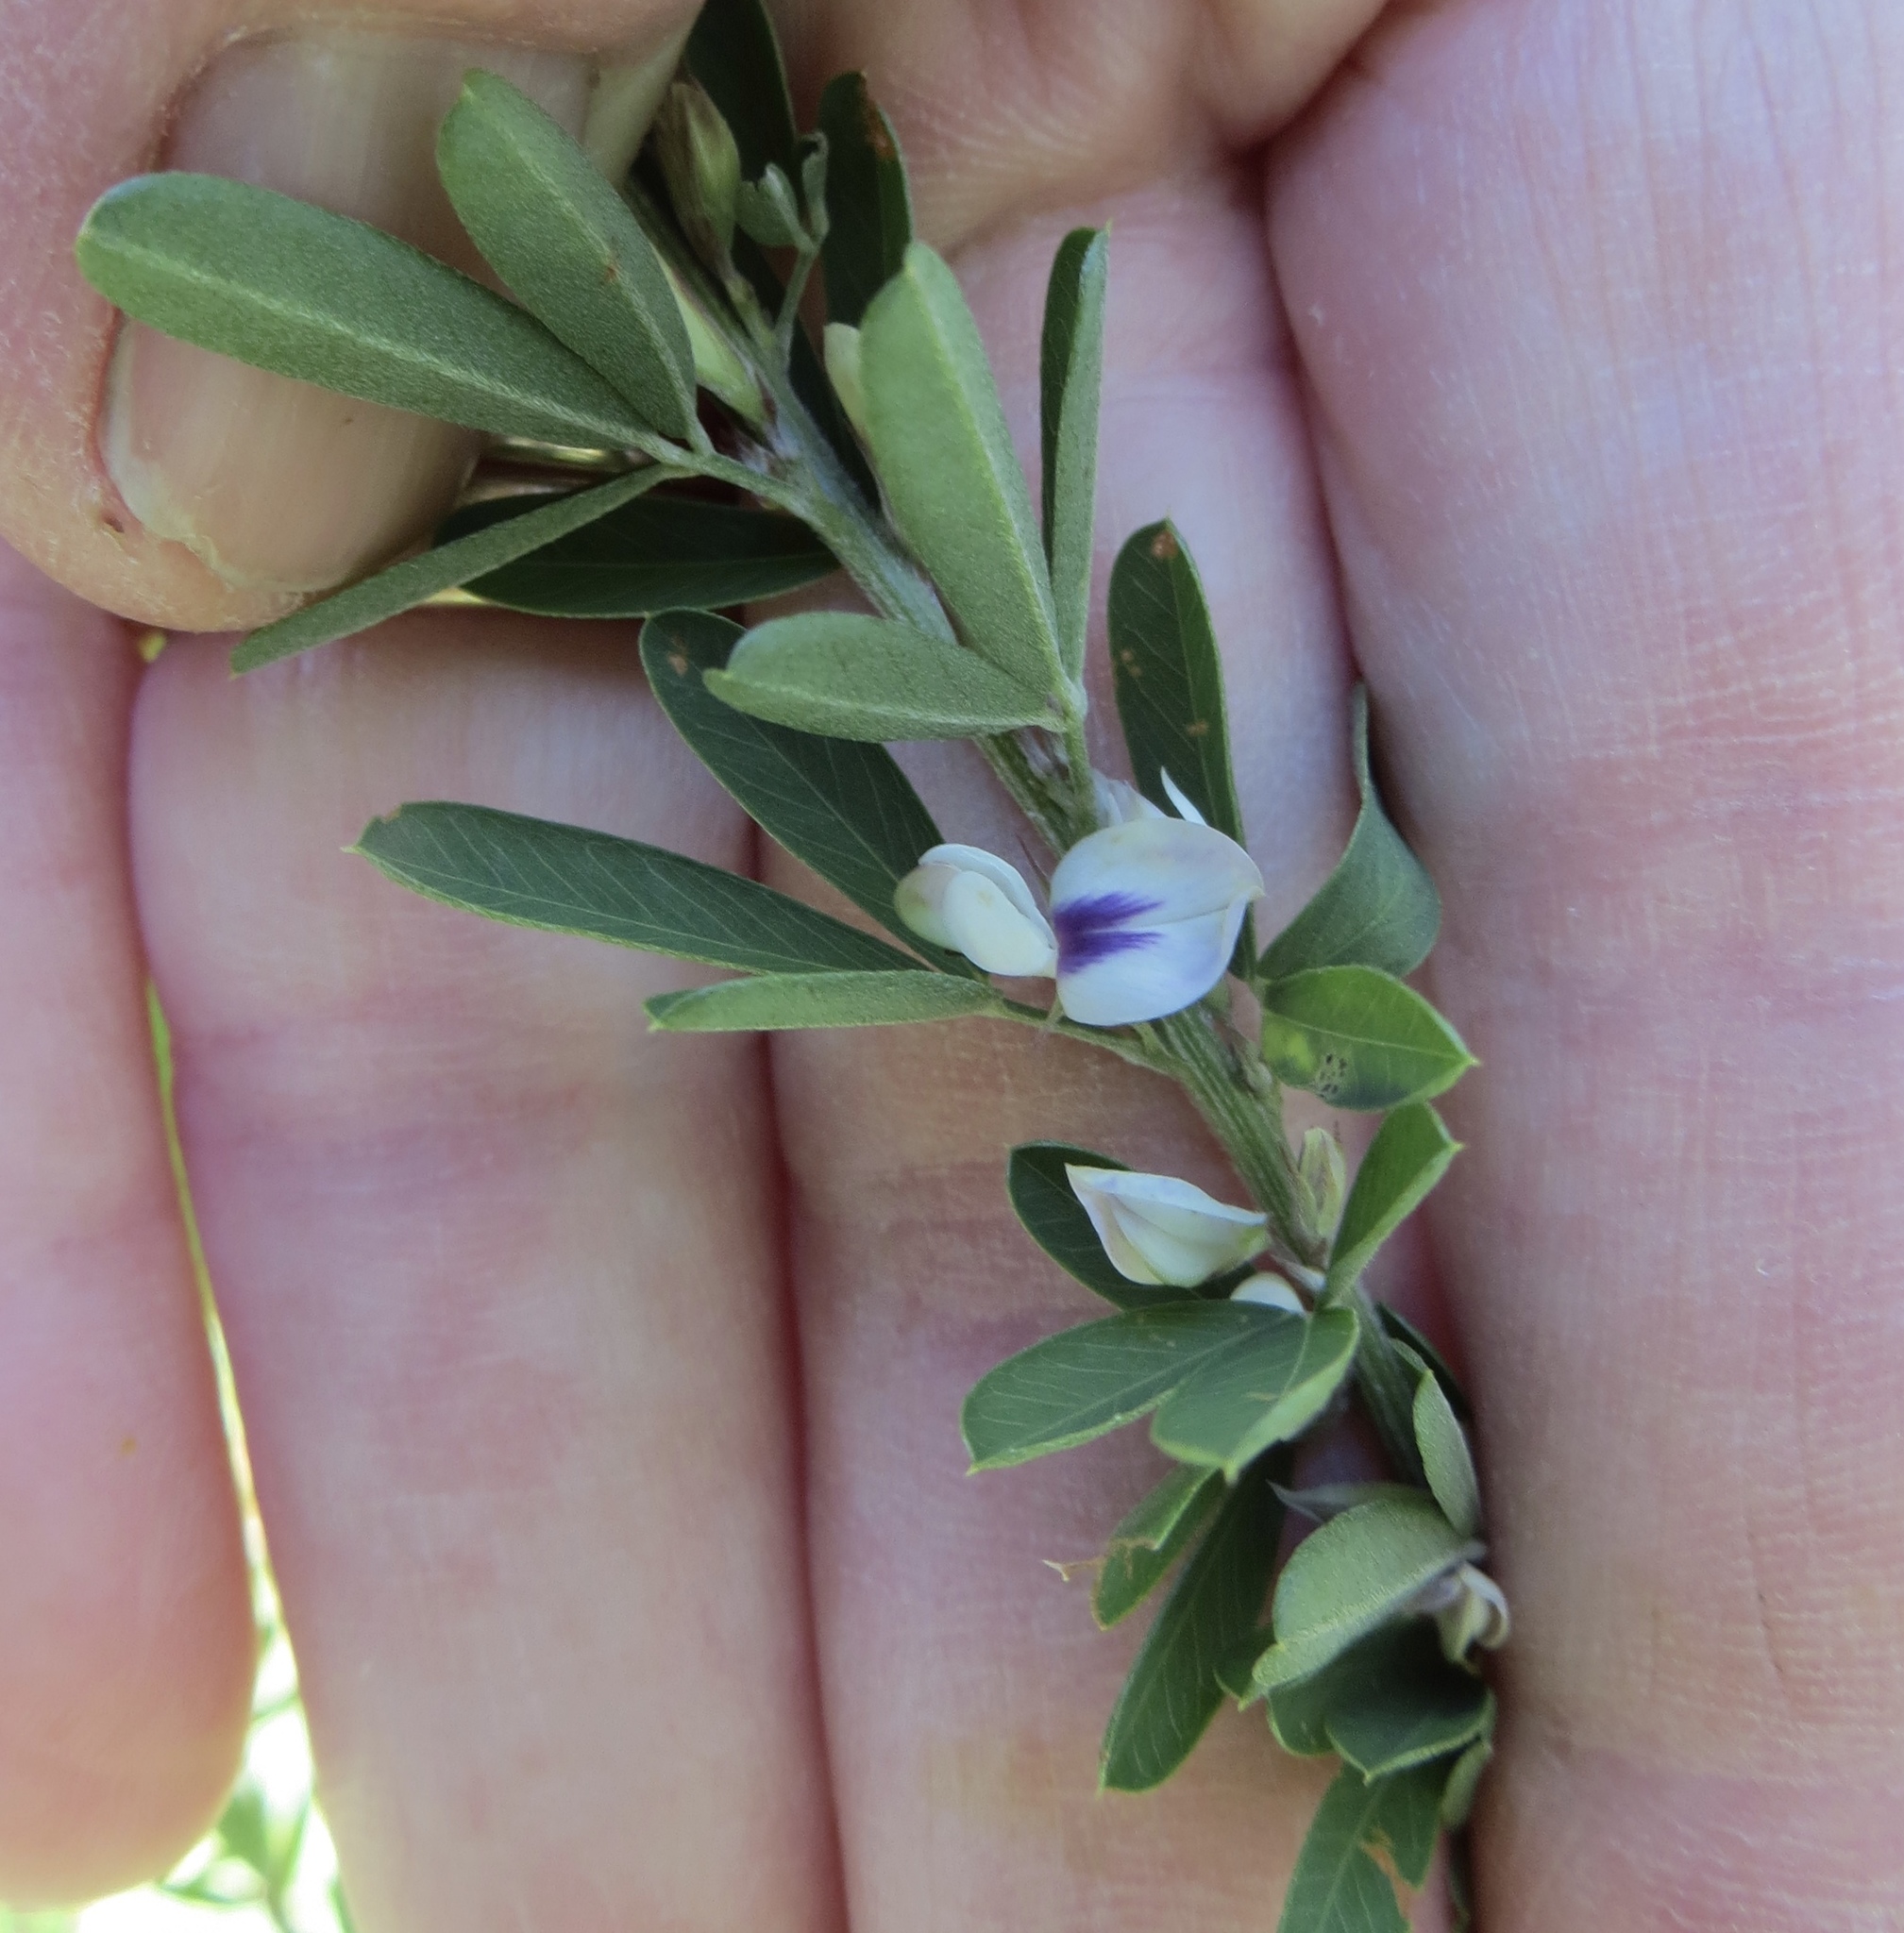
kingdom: Plantae
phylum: Tracheophyta
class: Magnoliopsida
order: Fabales
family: Fabaceae
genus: Lespedeza
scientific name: Lespedeza cuneata
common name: Chinese bush-clover
